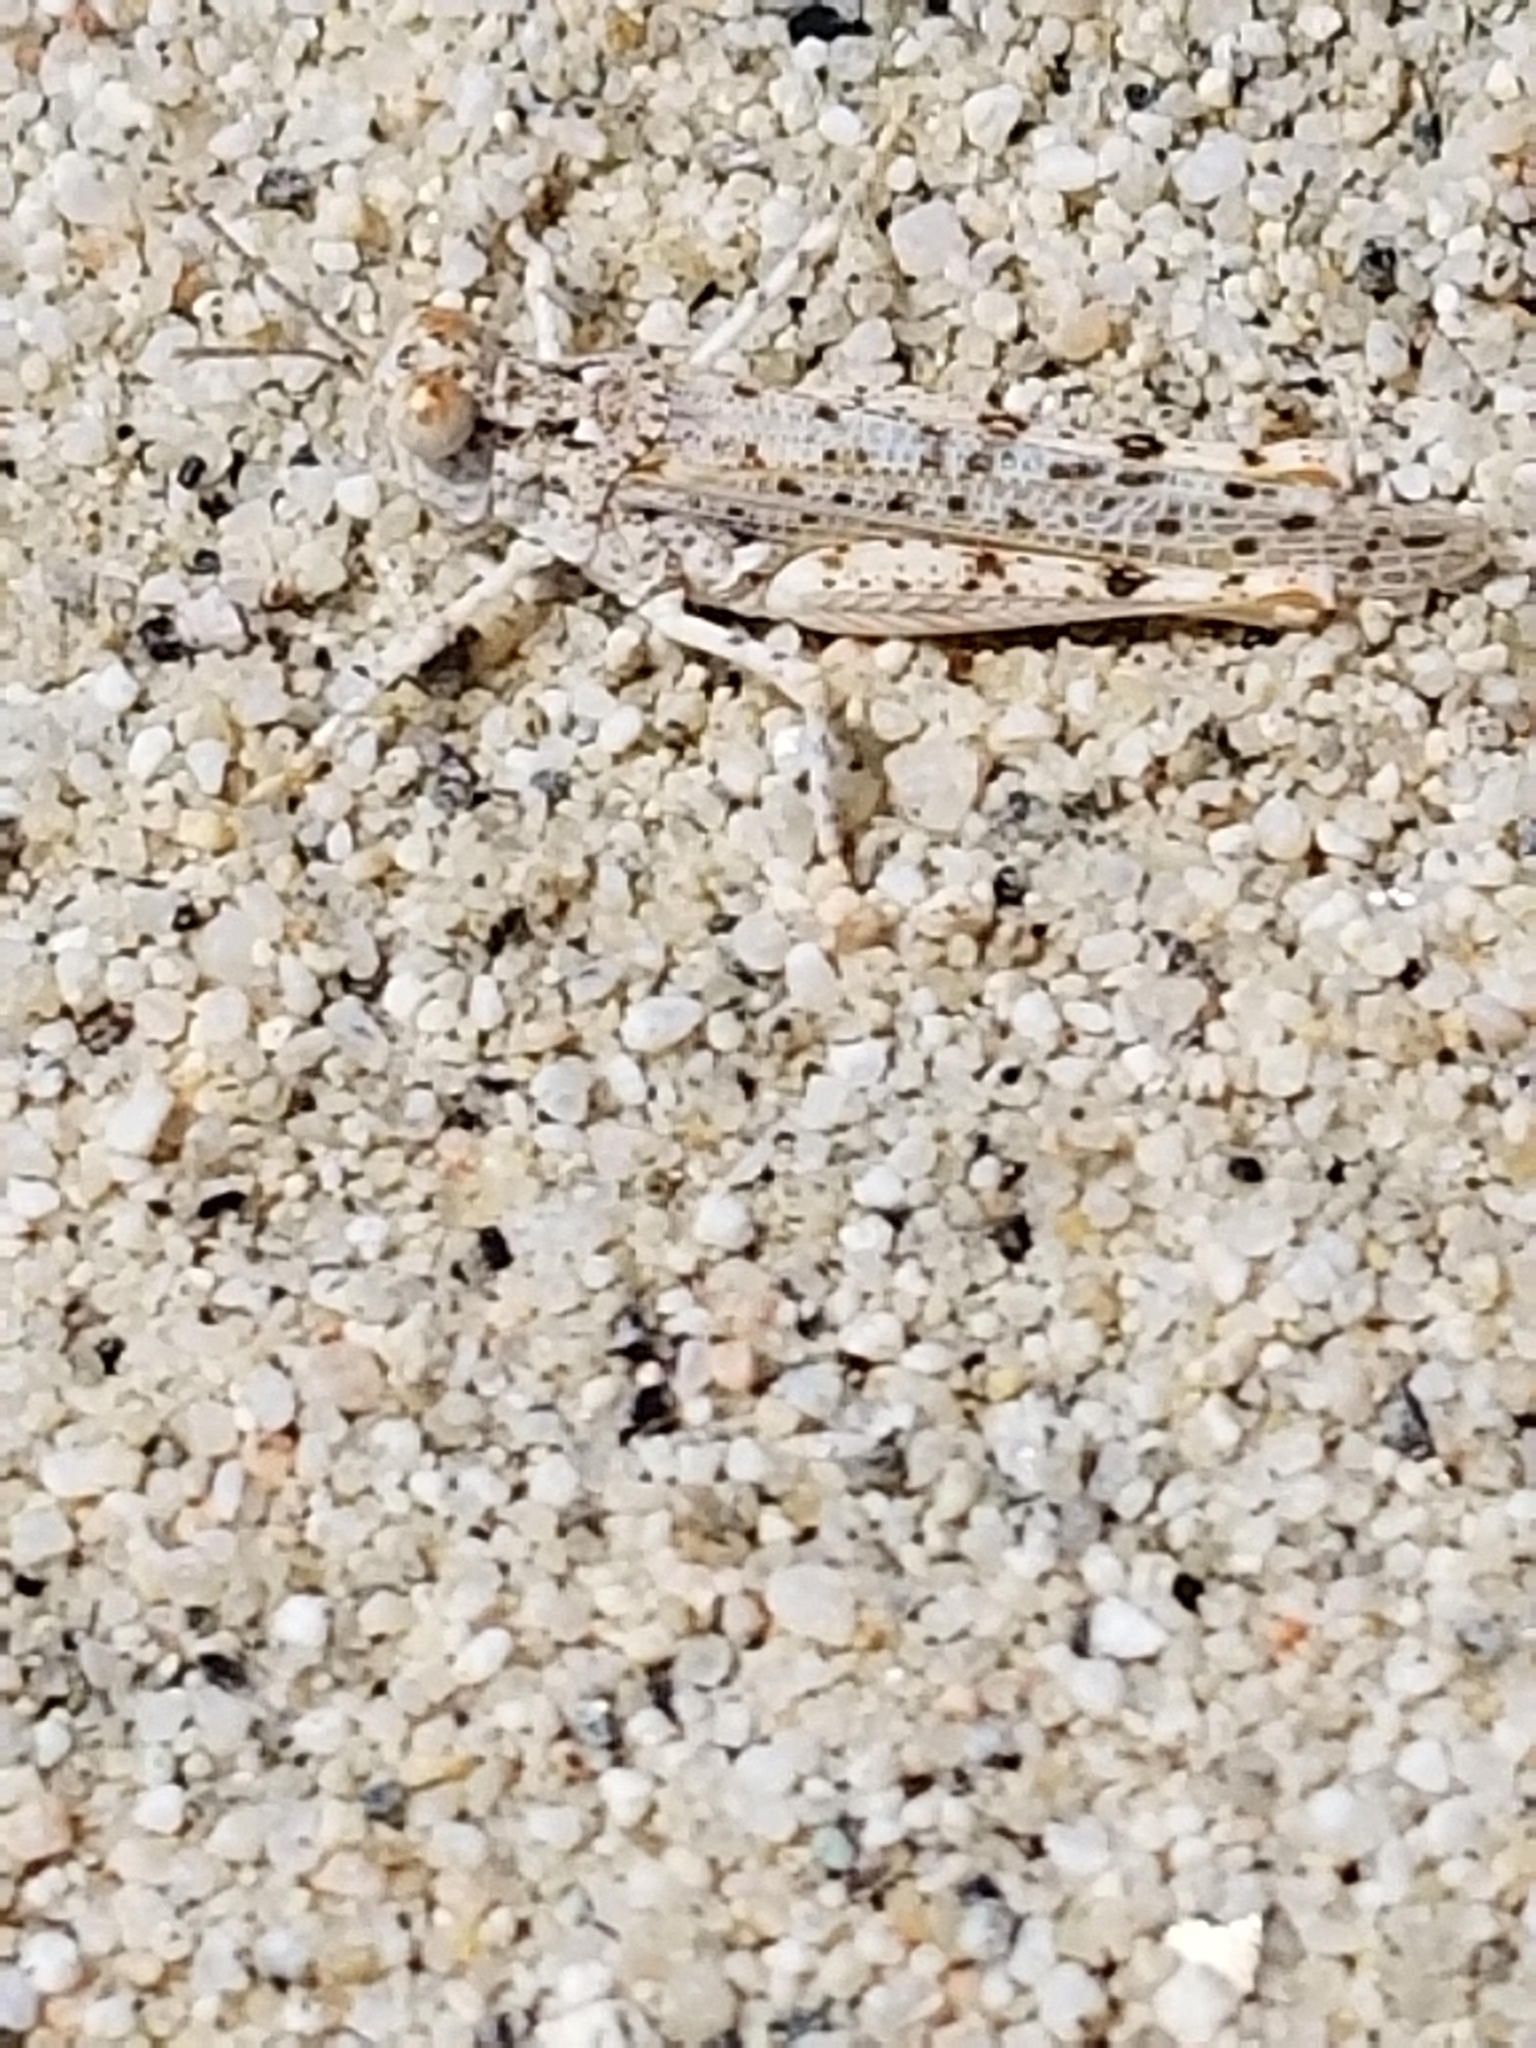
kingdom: Animalia
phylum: Arthropoda
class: Insecta
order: Orthoptera
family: Acrididae
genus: Xeracris
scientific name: Xeracris snowi
